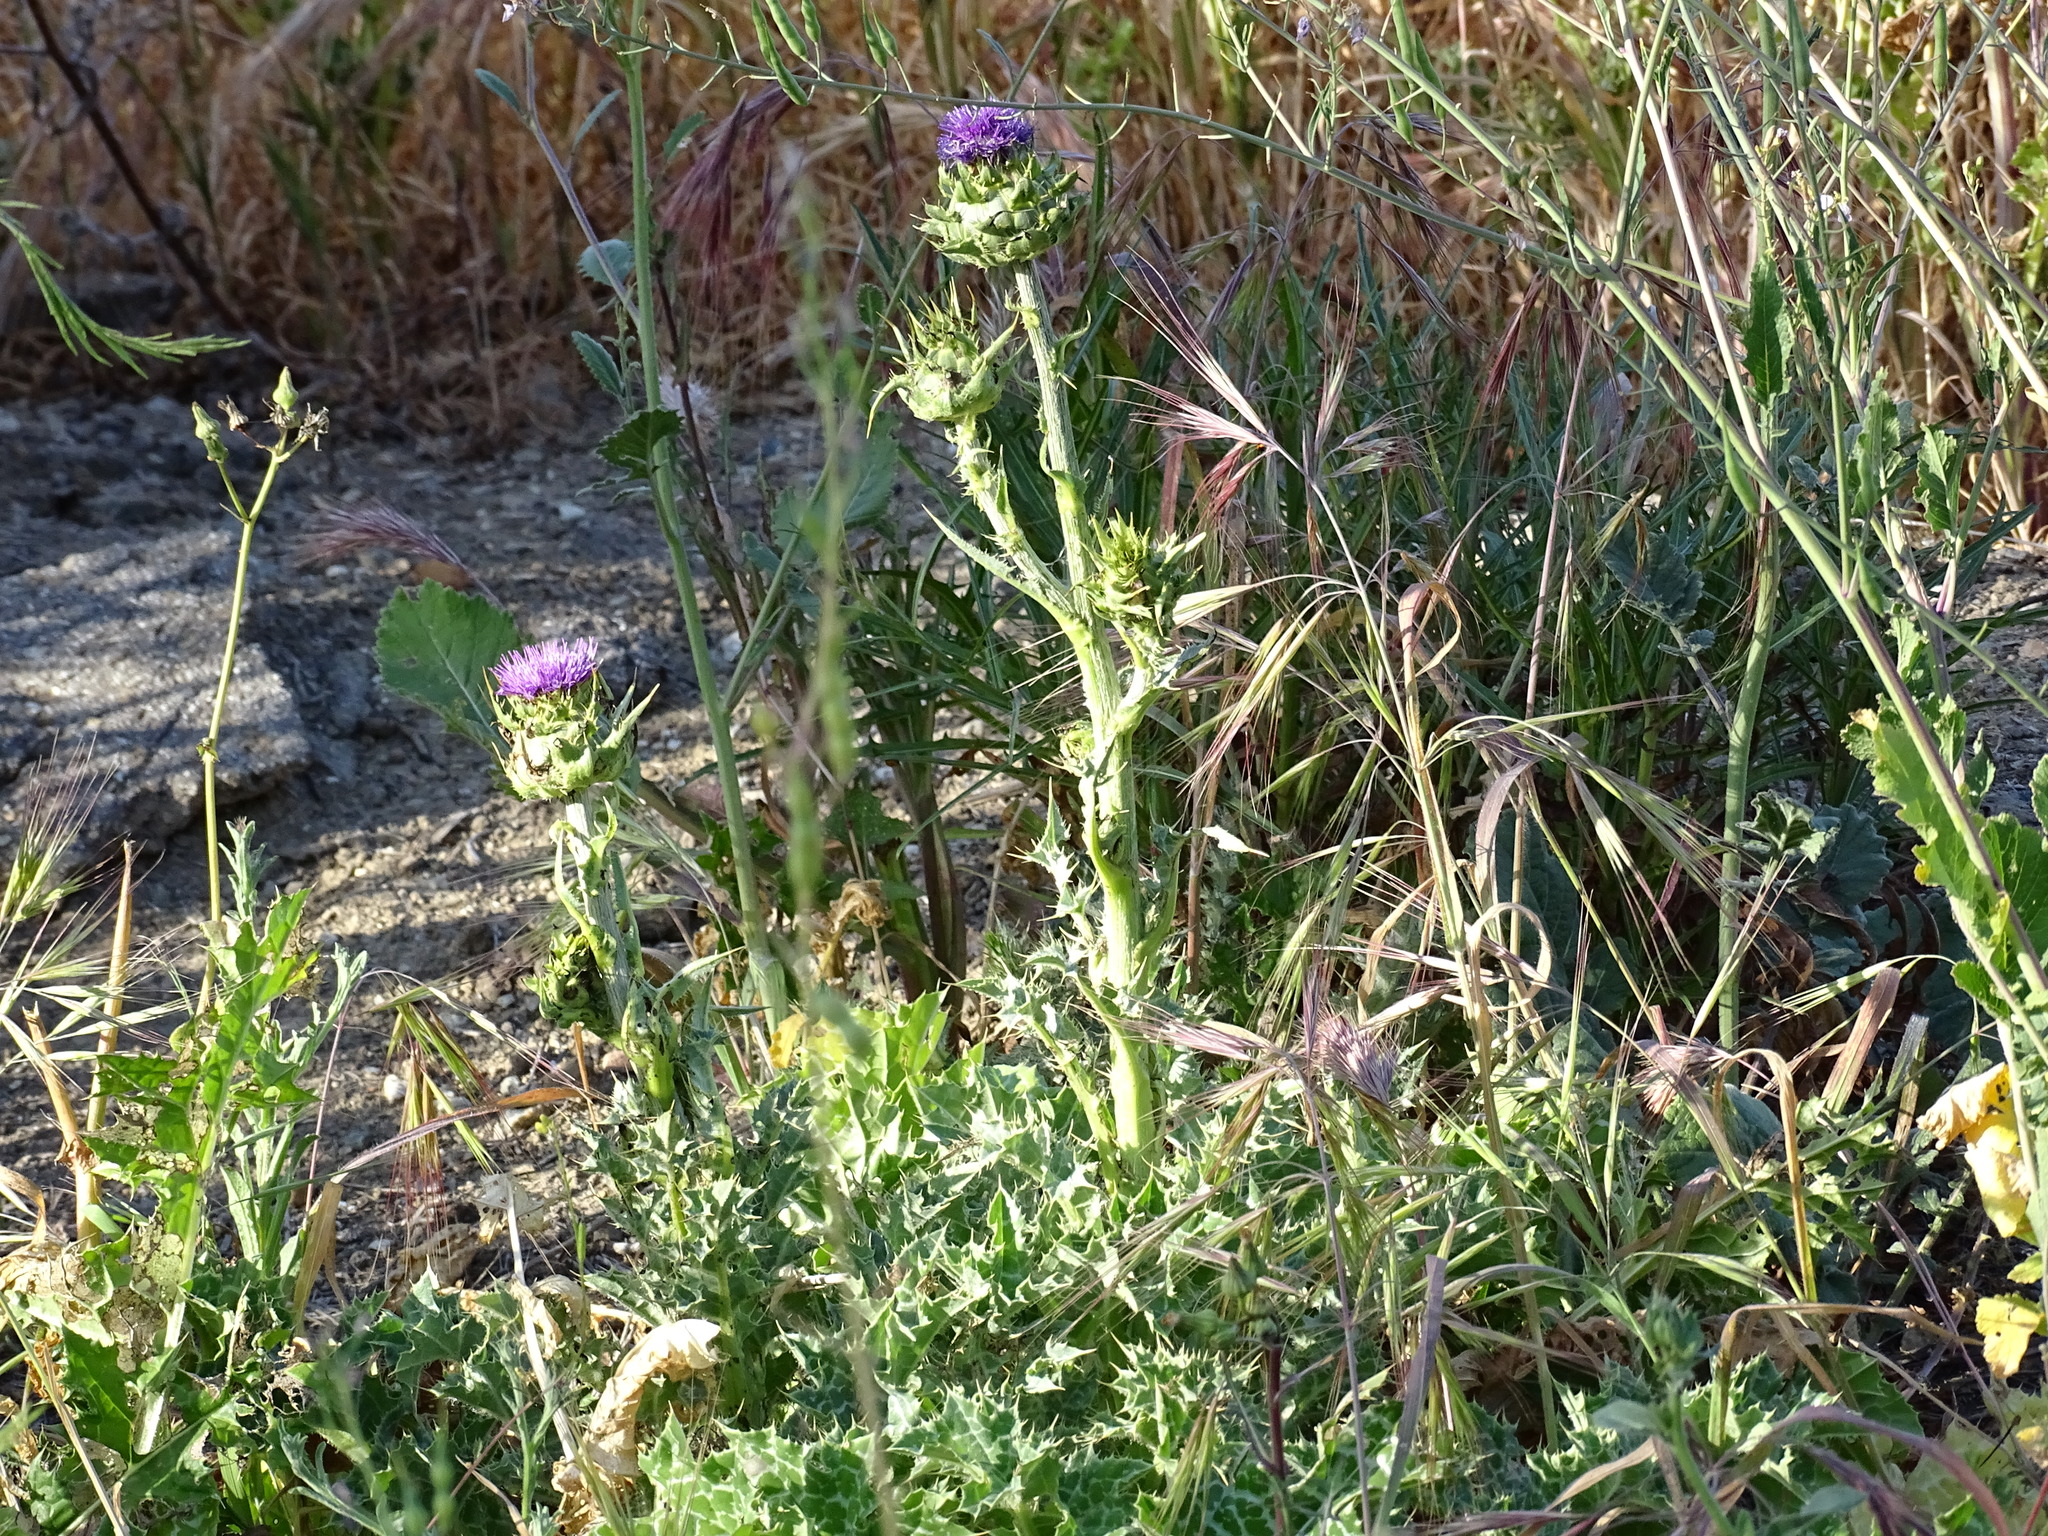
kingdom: Plantae
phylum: Tracheophyta
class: Magnoliopsida
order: Asterales
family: Asteraceae
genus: Silybum
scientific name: Silybum marianum
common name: Milk thistle
